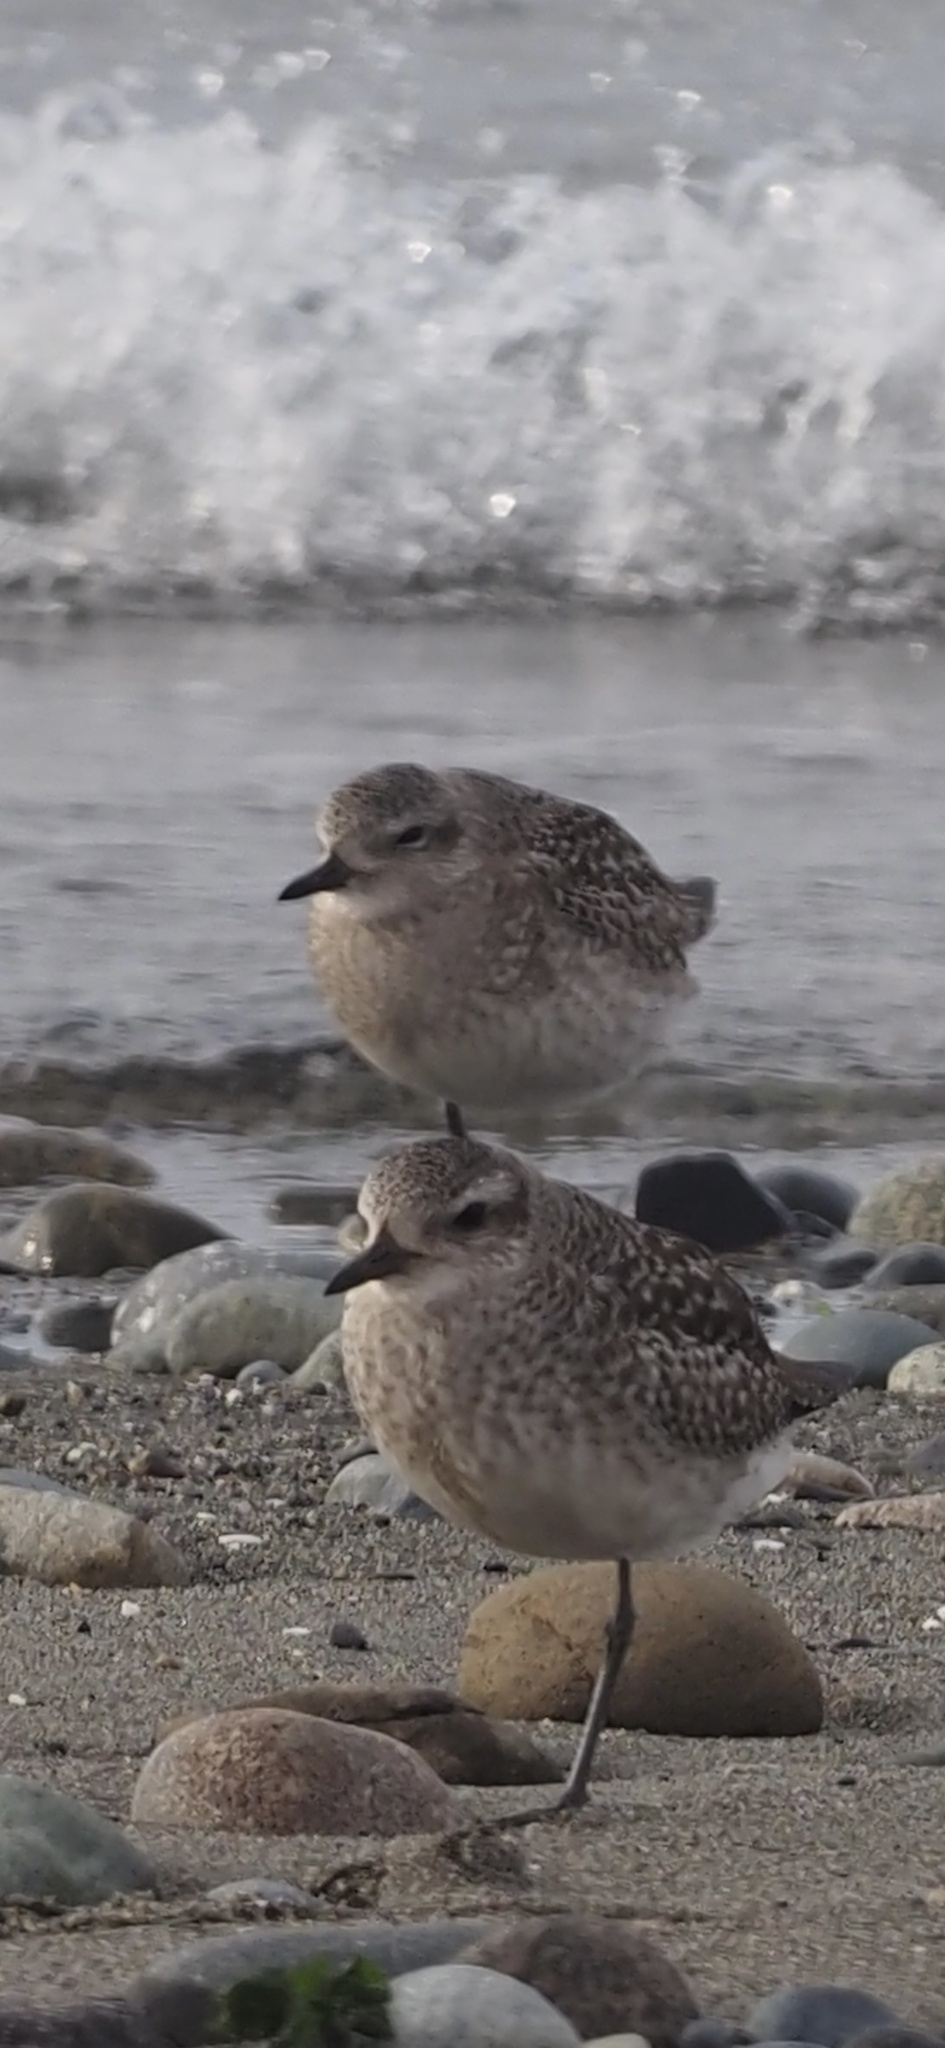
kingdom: Animalia
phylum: Chordata
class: Aves
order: Charadriiformes
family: Charadriidae
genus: Pluvialis
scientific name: Pluvialis squatarola
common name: Grey plover
